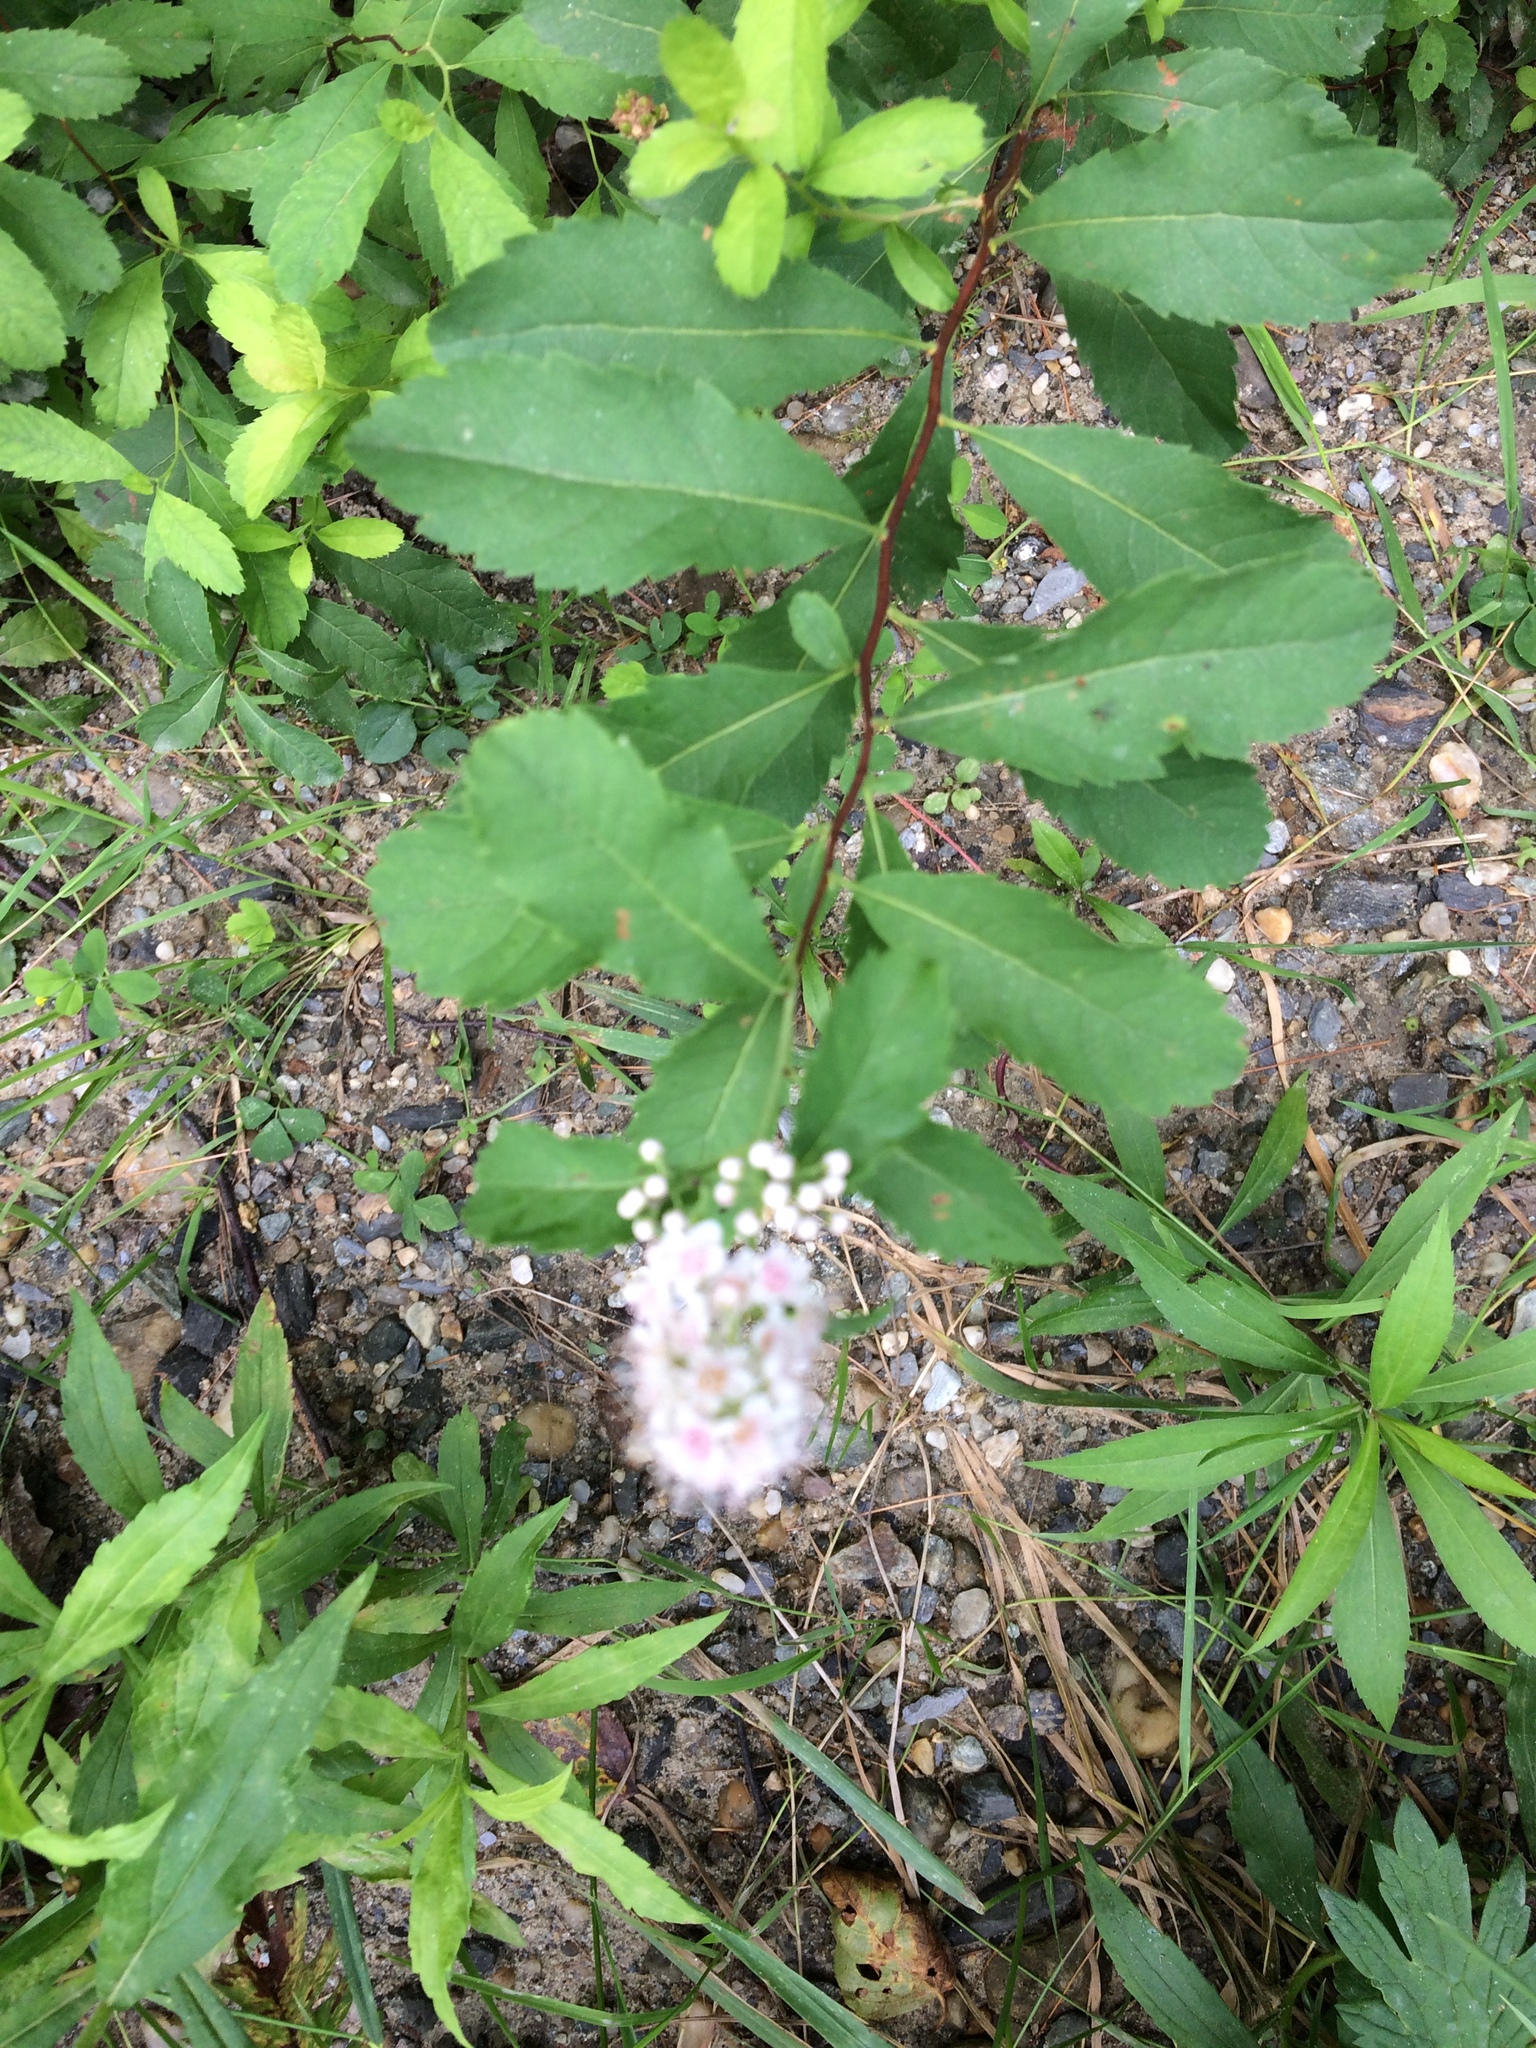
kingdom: Plantae
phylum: Tracheophyta
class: Magnoliopsida
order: Rosales
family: Rosaceae
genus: Spiraea
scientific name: Spiraea alba
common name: Pale bridewort
